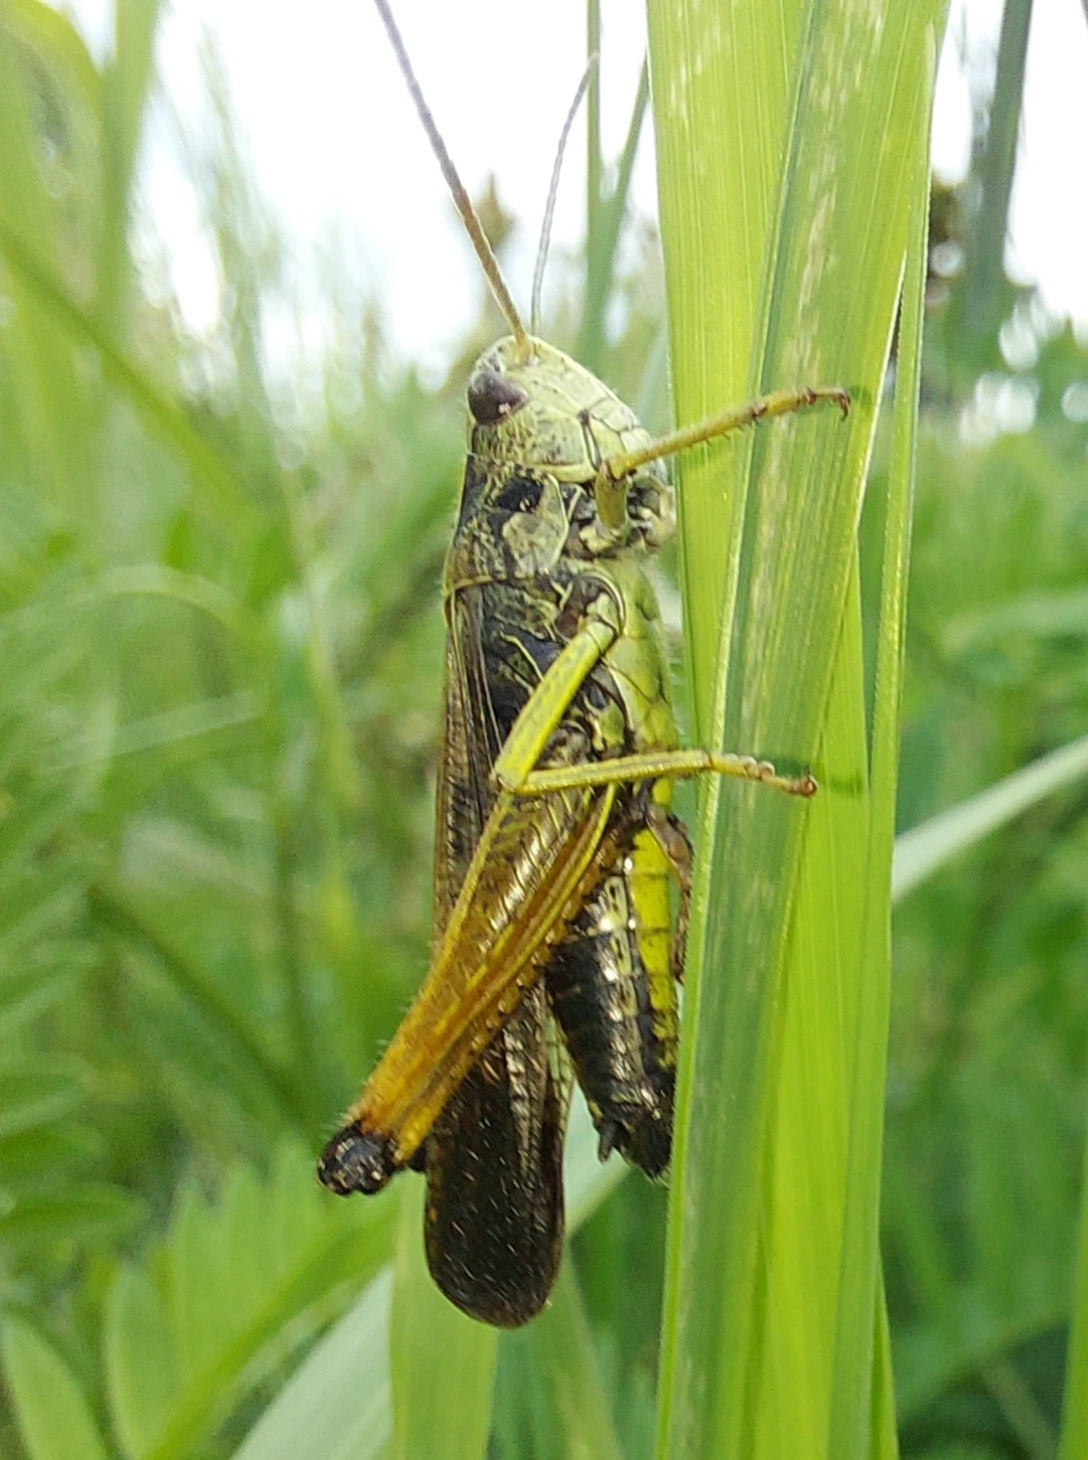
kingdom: Animalia
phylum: Arthropoda
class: Insecta
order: Orthoptera
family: Acrididae
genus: Omocestus
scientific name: Omocestus viridulus
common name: Common green grasshopper
